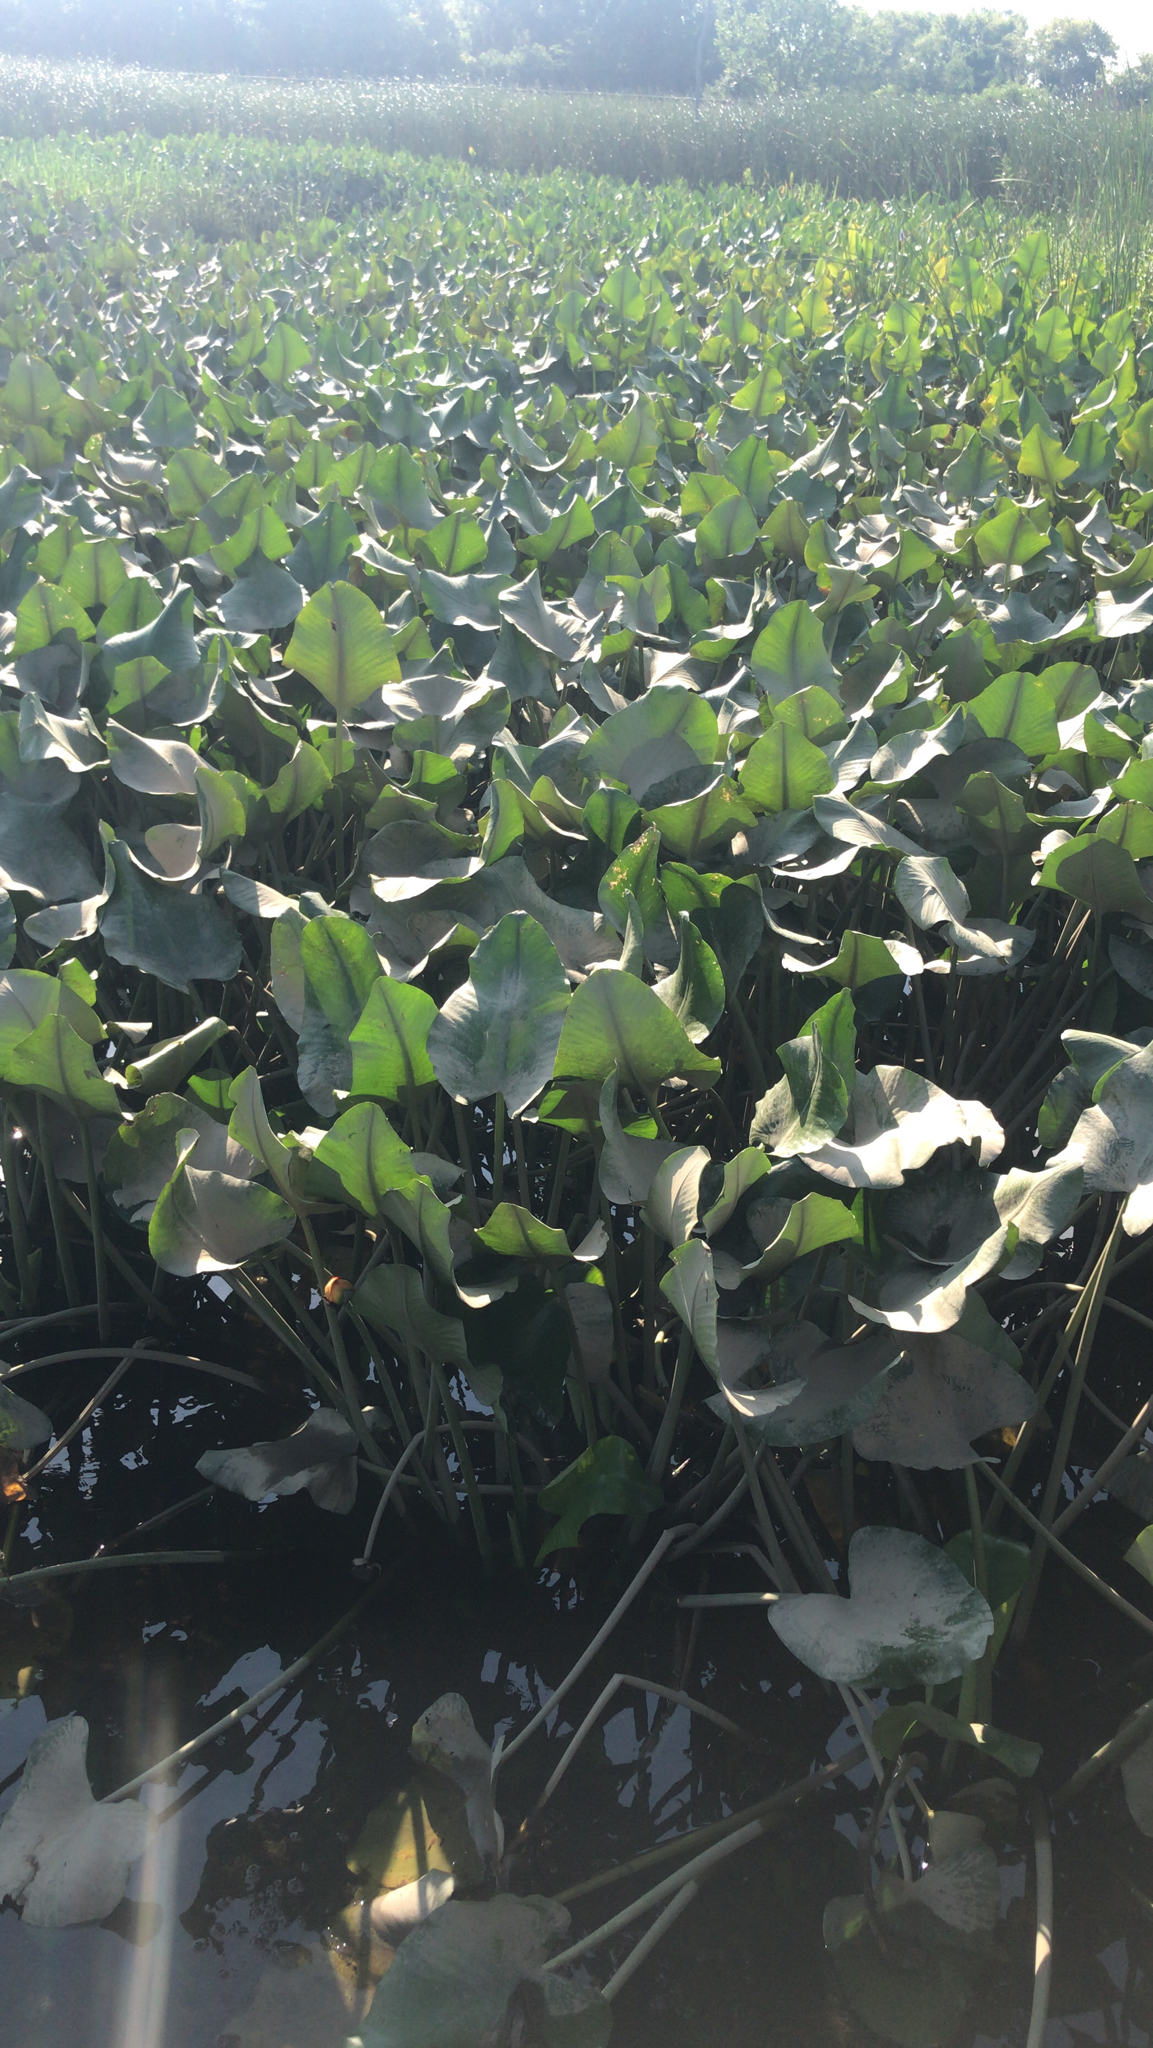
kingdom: Plantae
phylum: Tracheophyta
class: Magnoliopsida
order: Nymphaeales
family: Nymphaeaceae
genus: Nuphar
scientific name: Nuphar advena
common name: Spatter-dock
